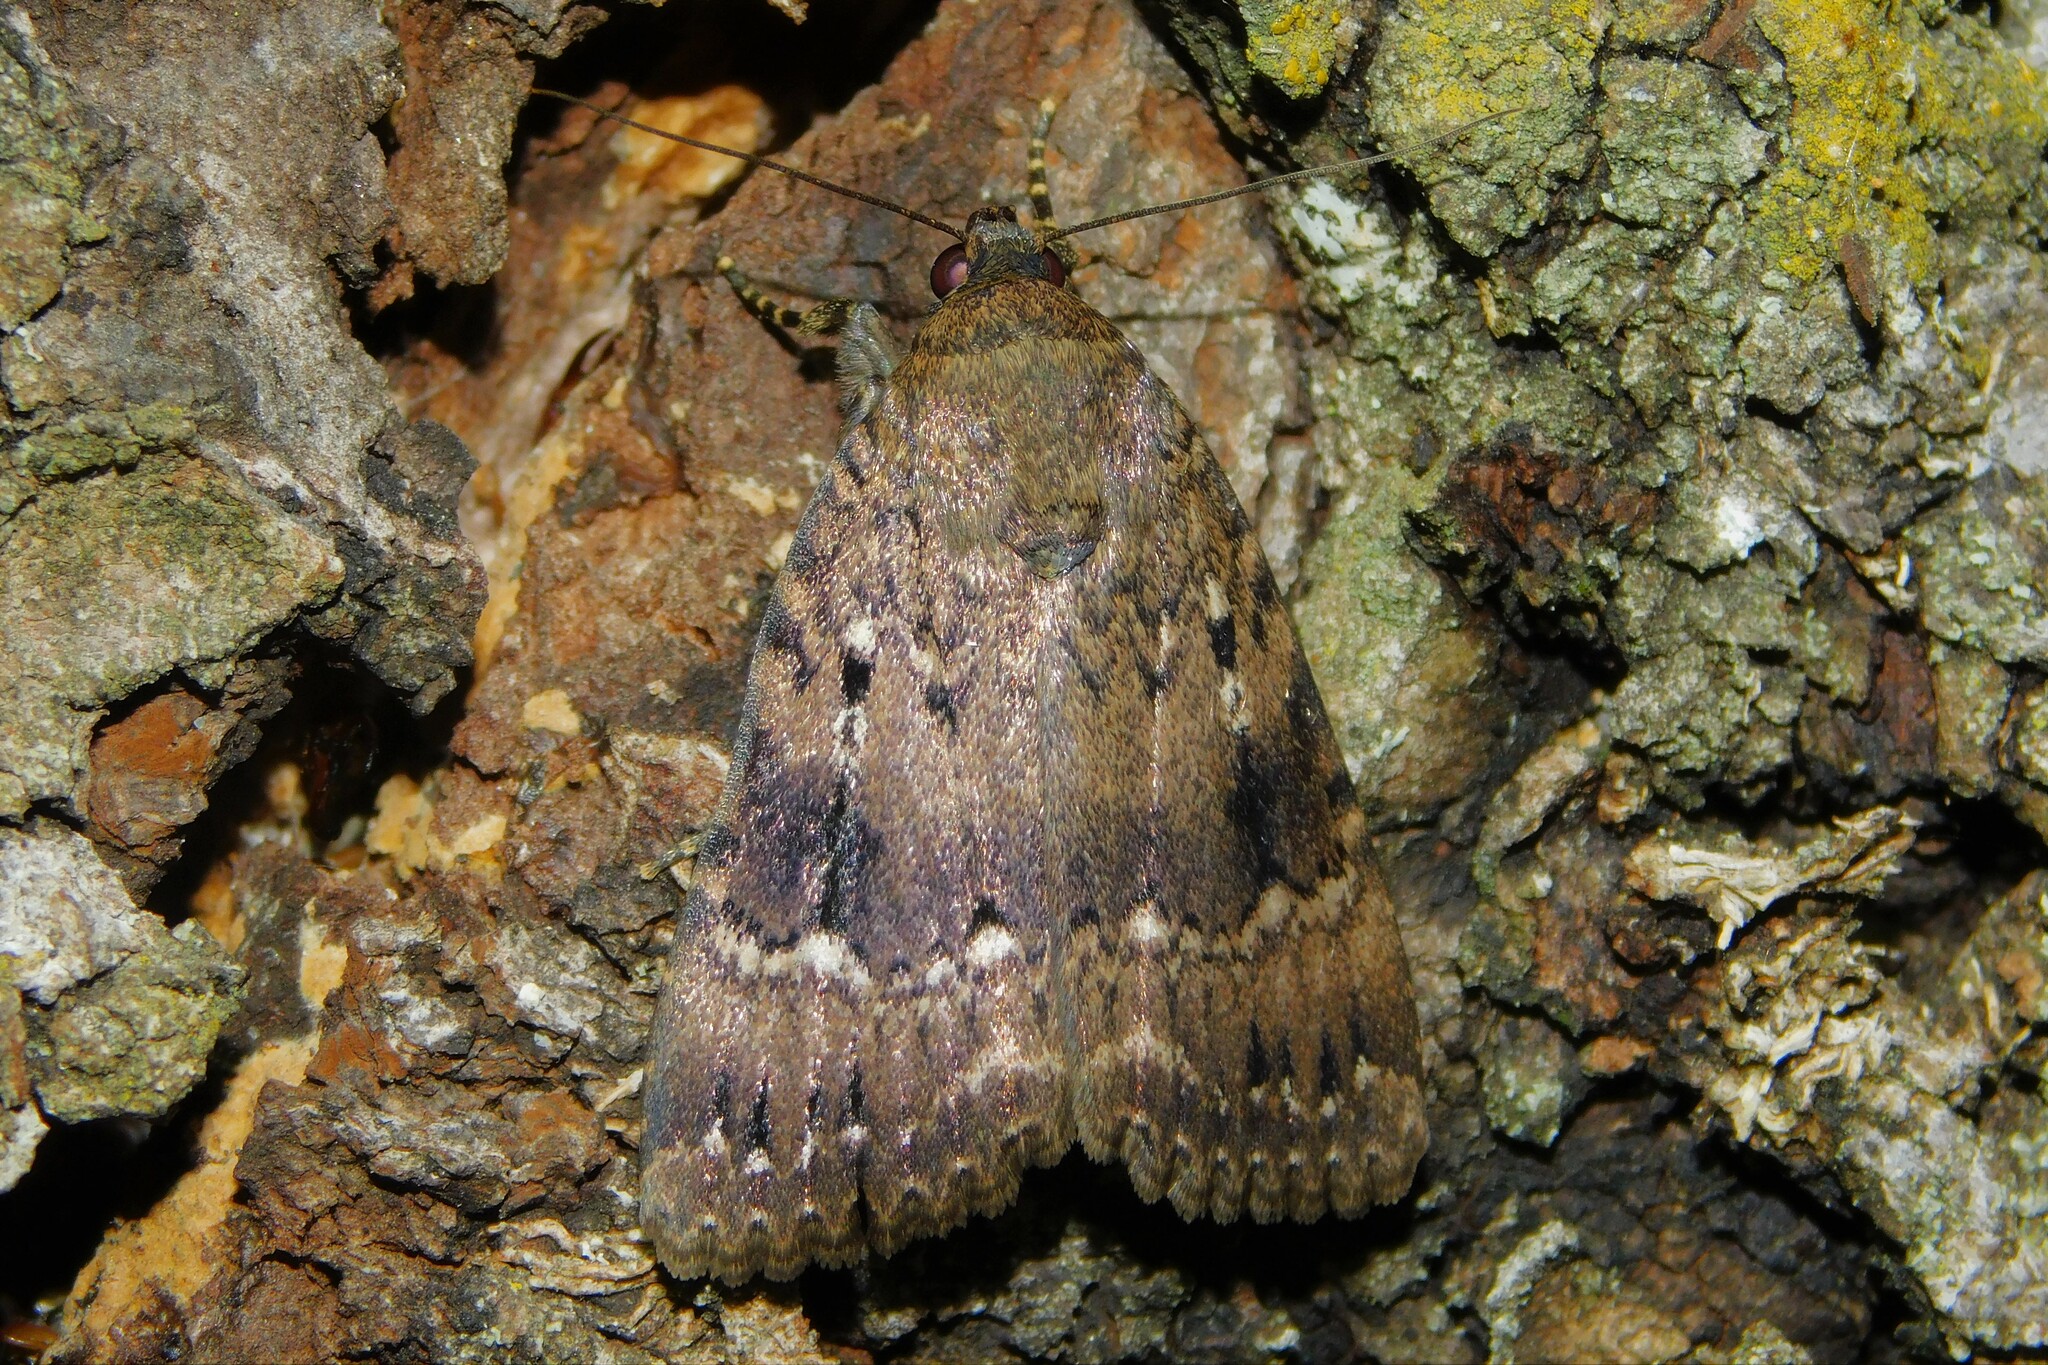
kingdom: Animalia
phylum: Arthropoda
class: Insecta
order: Lepidoptera
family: Noctuidae
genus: Amphipyra
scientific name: Amphipyra pyramidea
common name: Copper underwing
